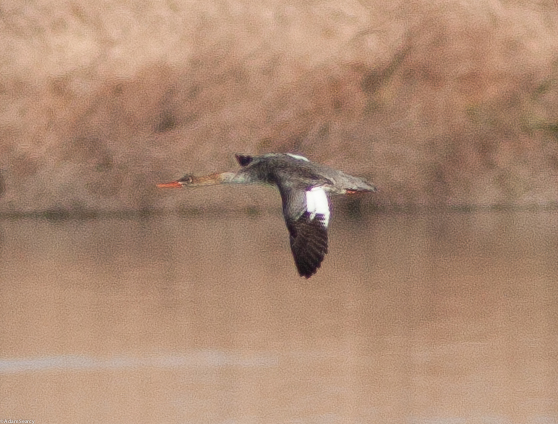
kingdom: Animalia
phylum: Chordata
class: Aves
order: Anseriformes
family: Anatidae
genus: Mergus
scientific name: Mergus serrator
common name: Red-breasted merganser
